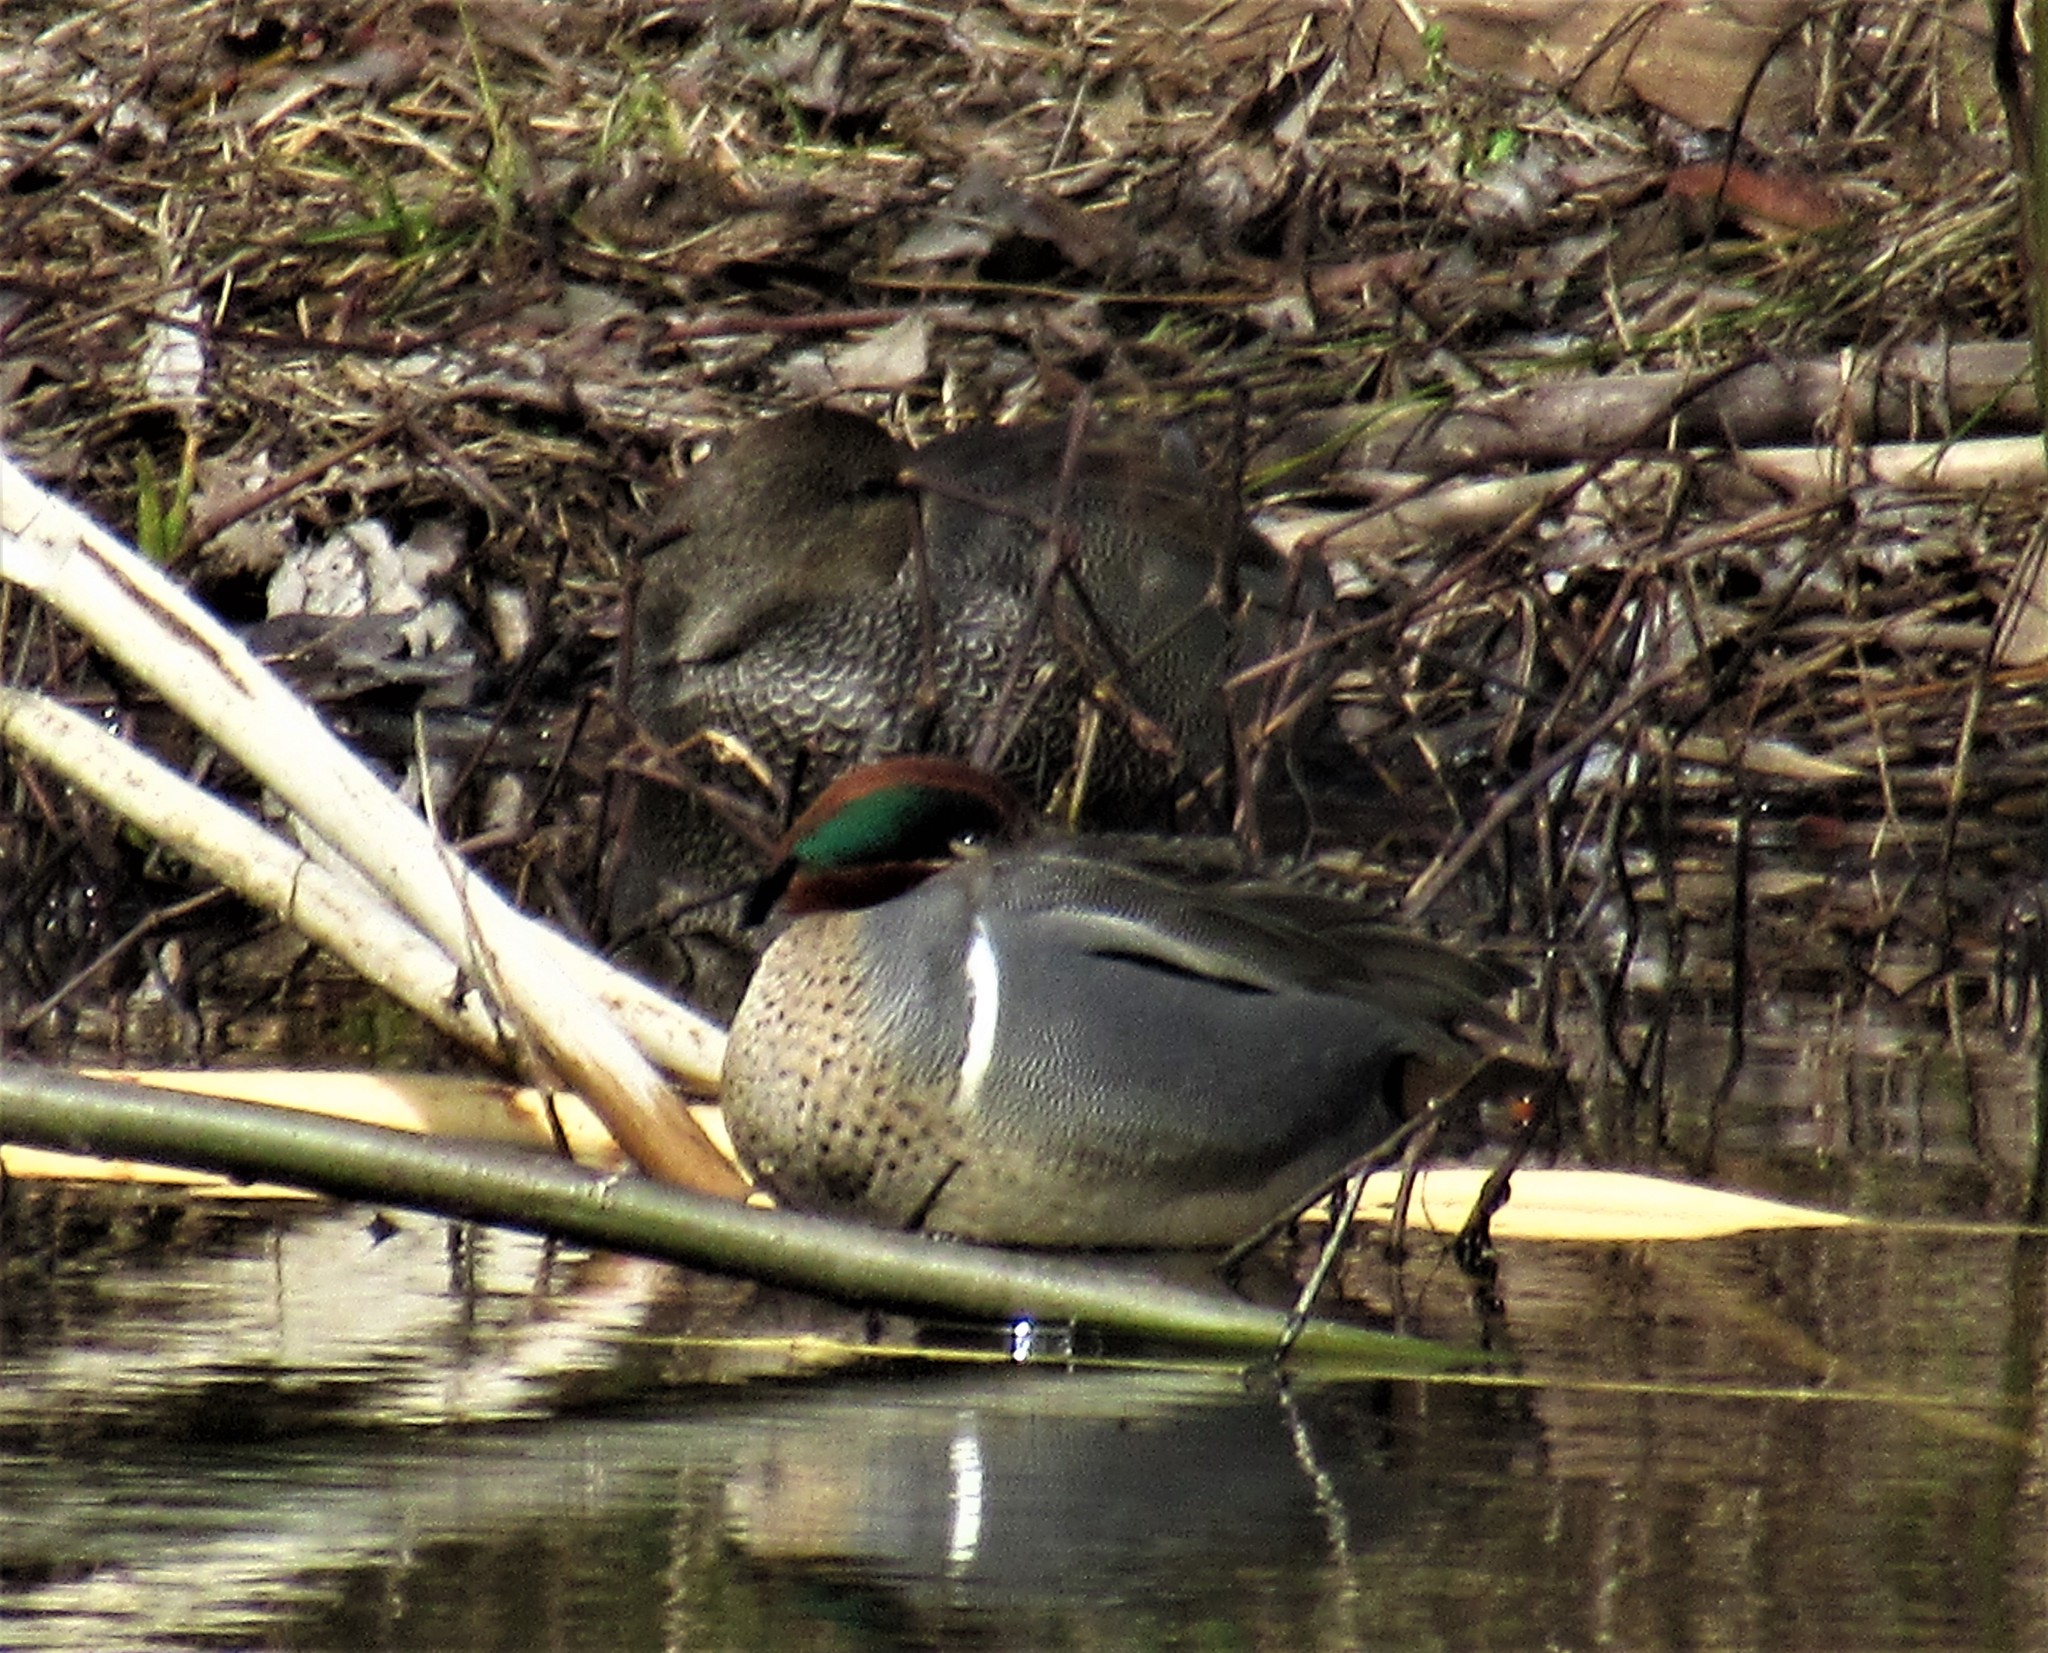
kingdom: Animalia
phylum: Chordata
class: Aves
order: Anseriformes
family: Anatidae
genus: Anas
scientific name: Anas crecca
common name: Eurasian teal
